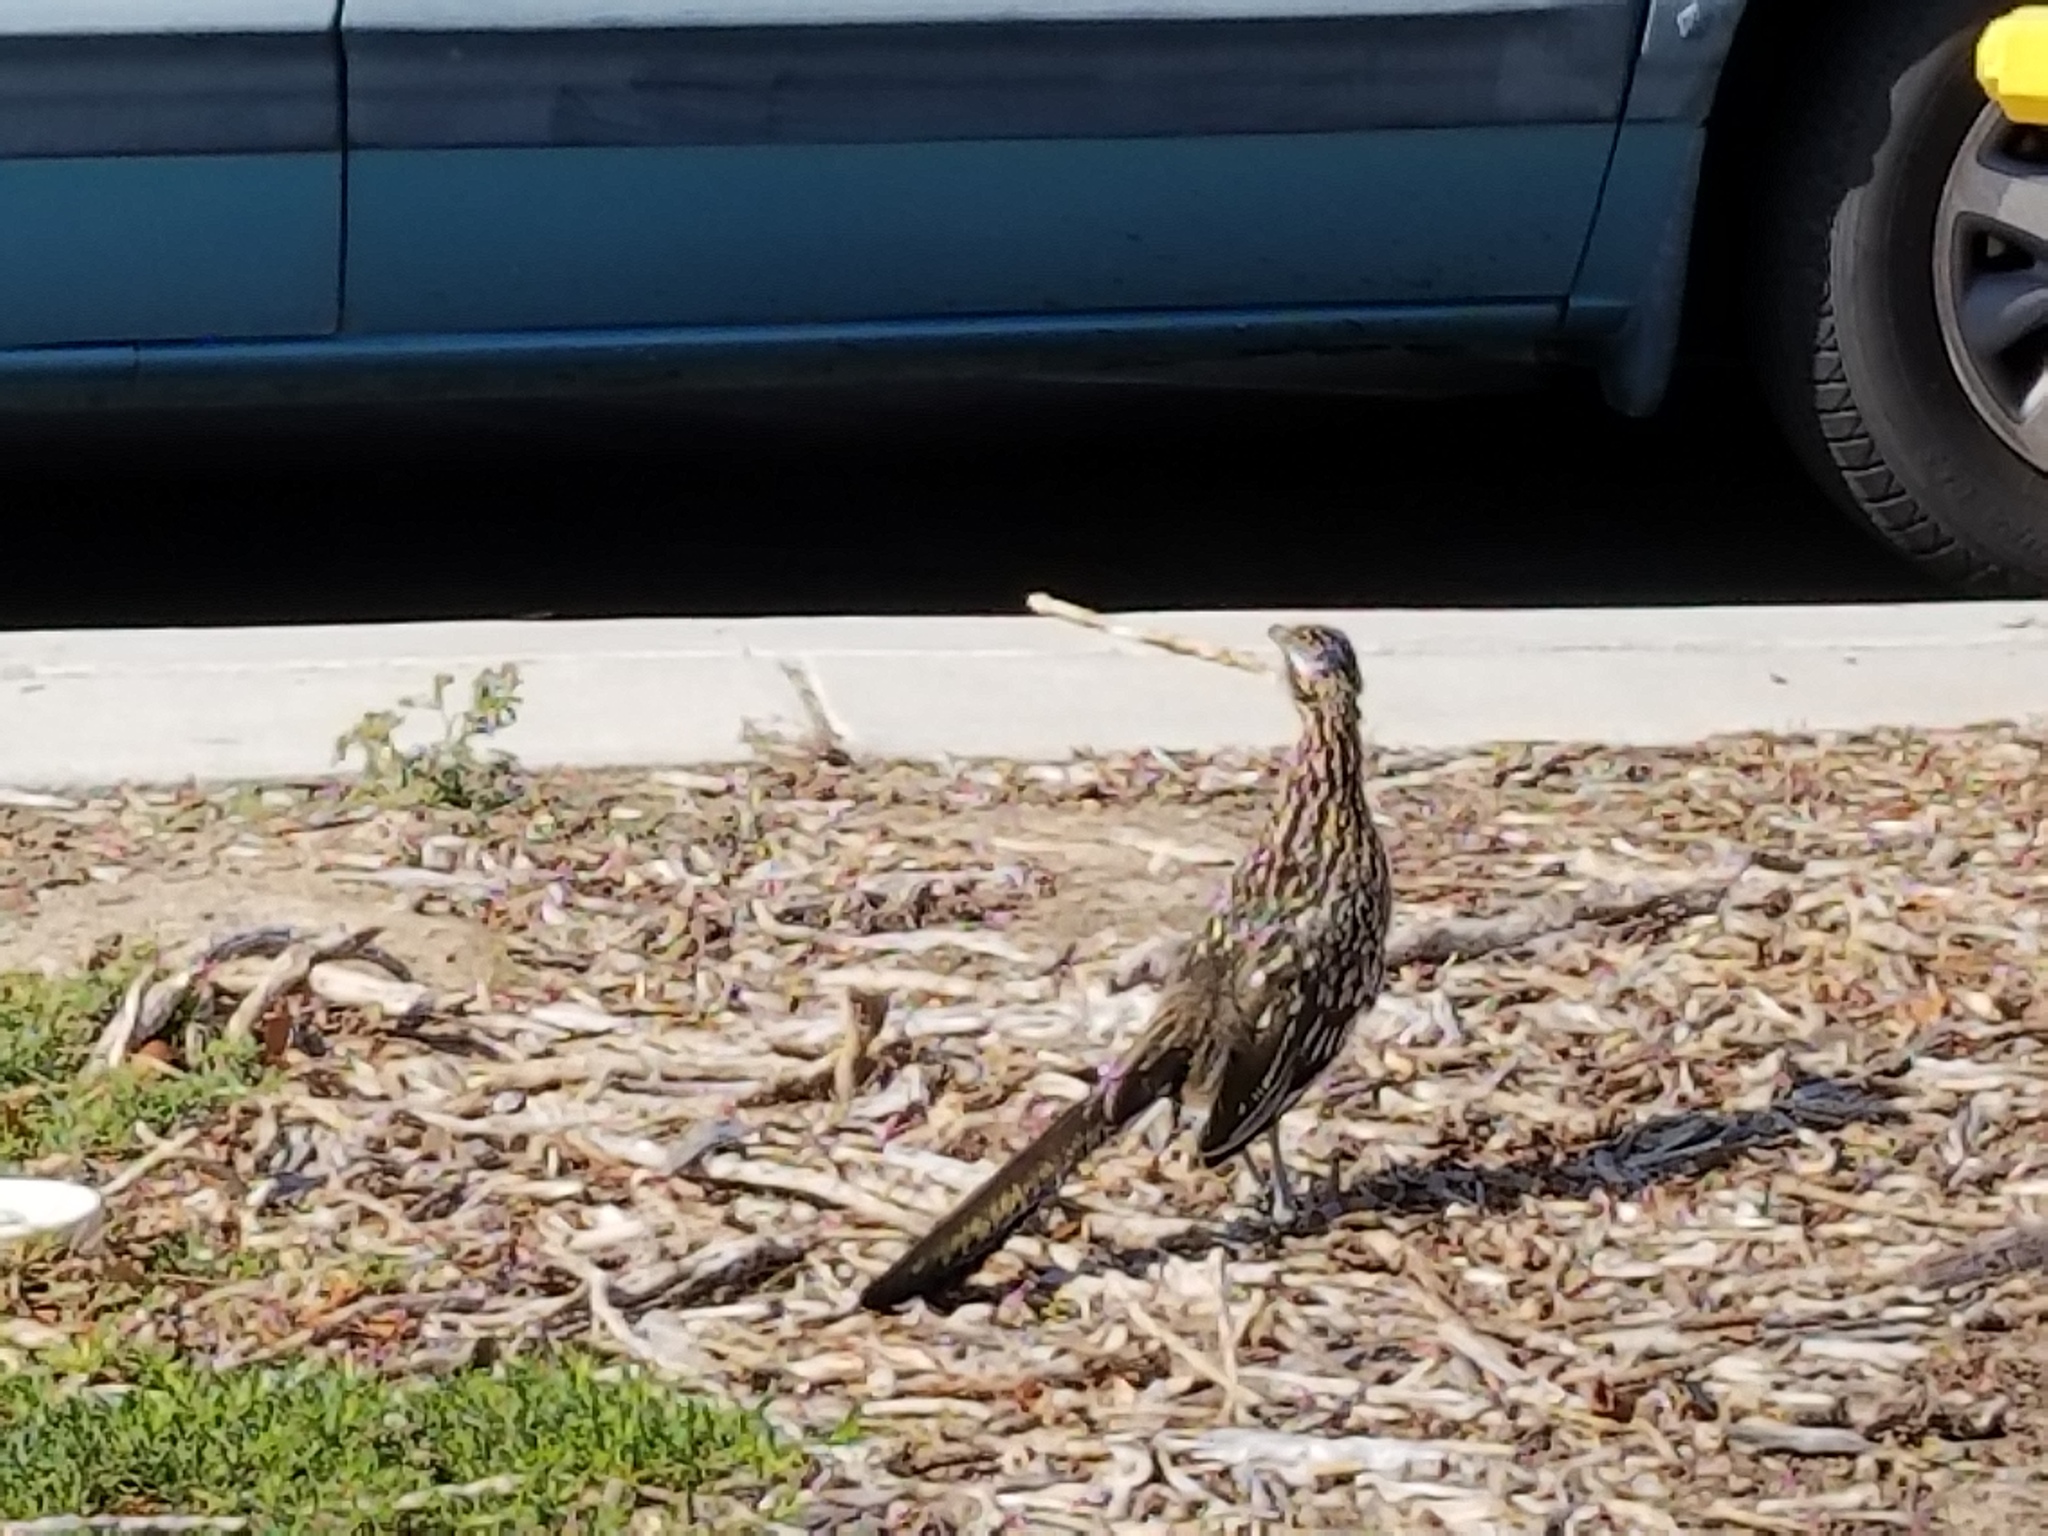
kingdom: Animalia
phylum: Chordata
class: Aves
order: Cuculiformes
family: Cuculidae
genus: Geococcyx
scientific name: Geococcyx californianus
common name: Greater roadrunner
